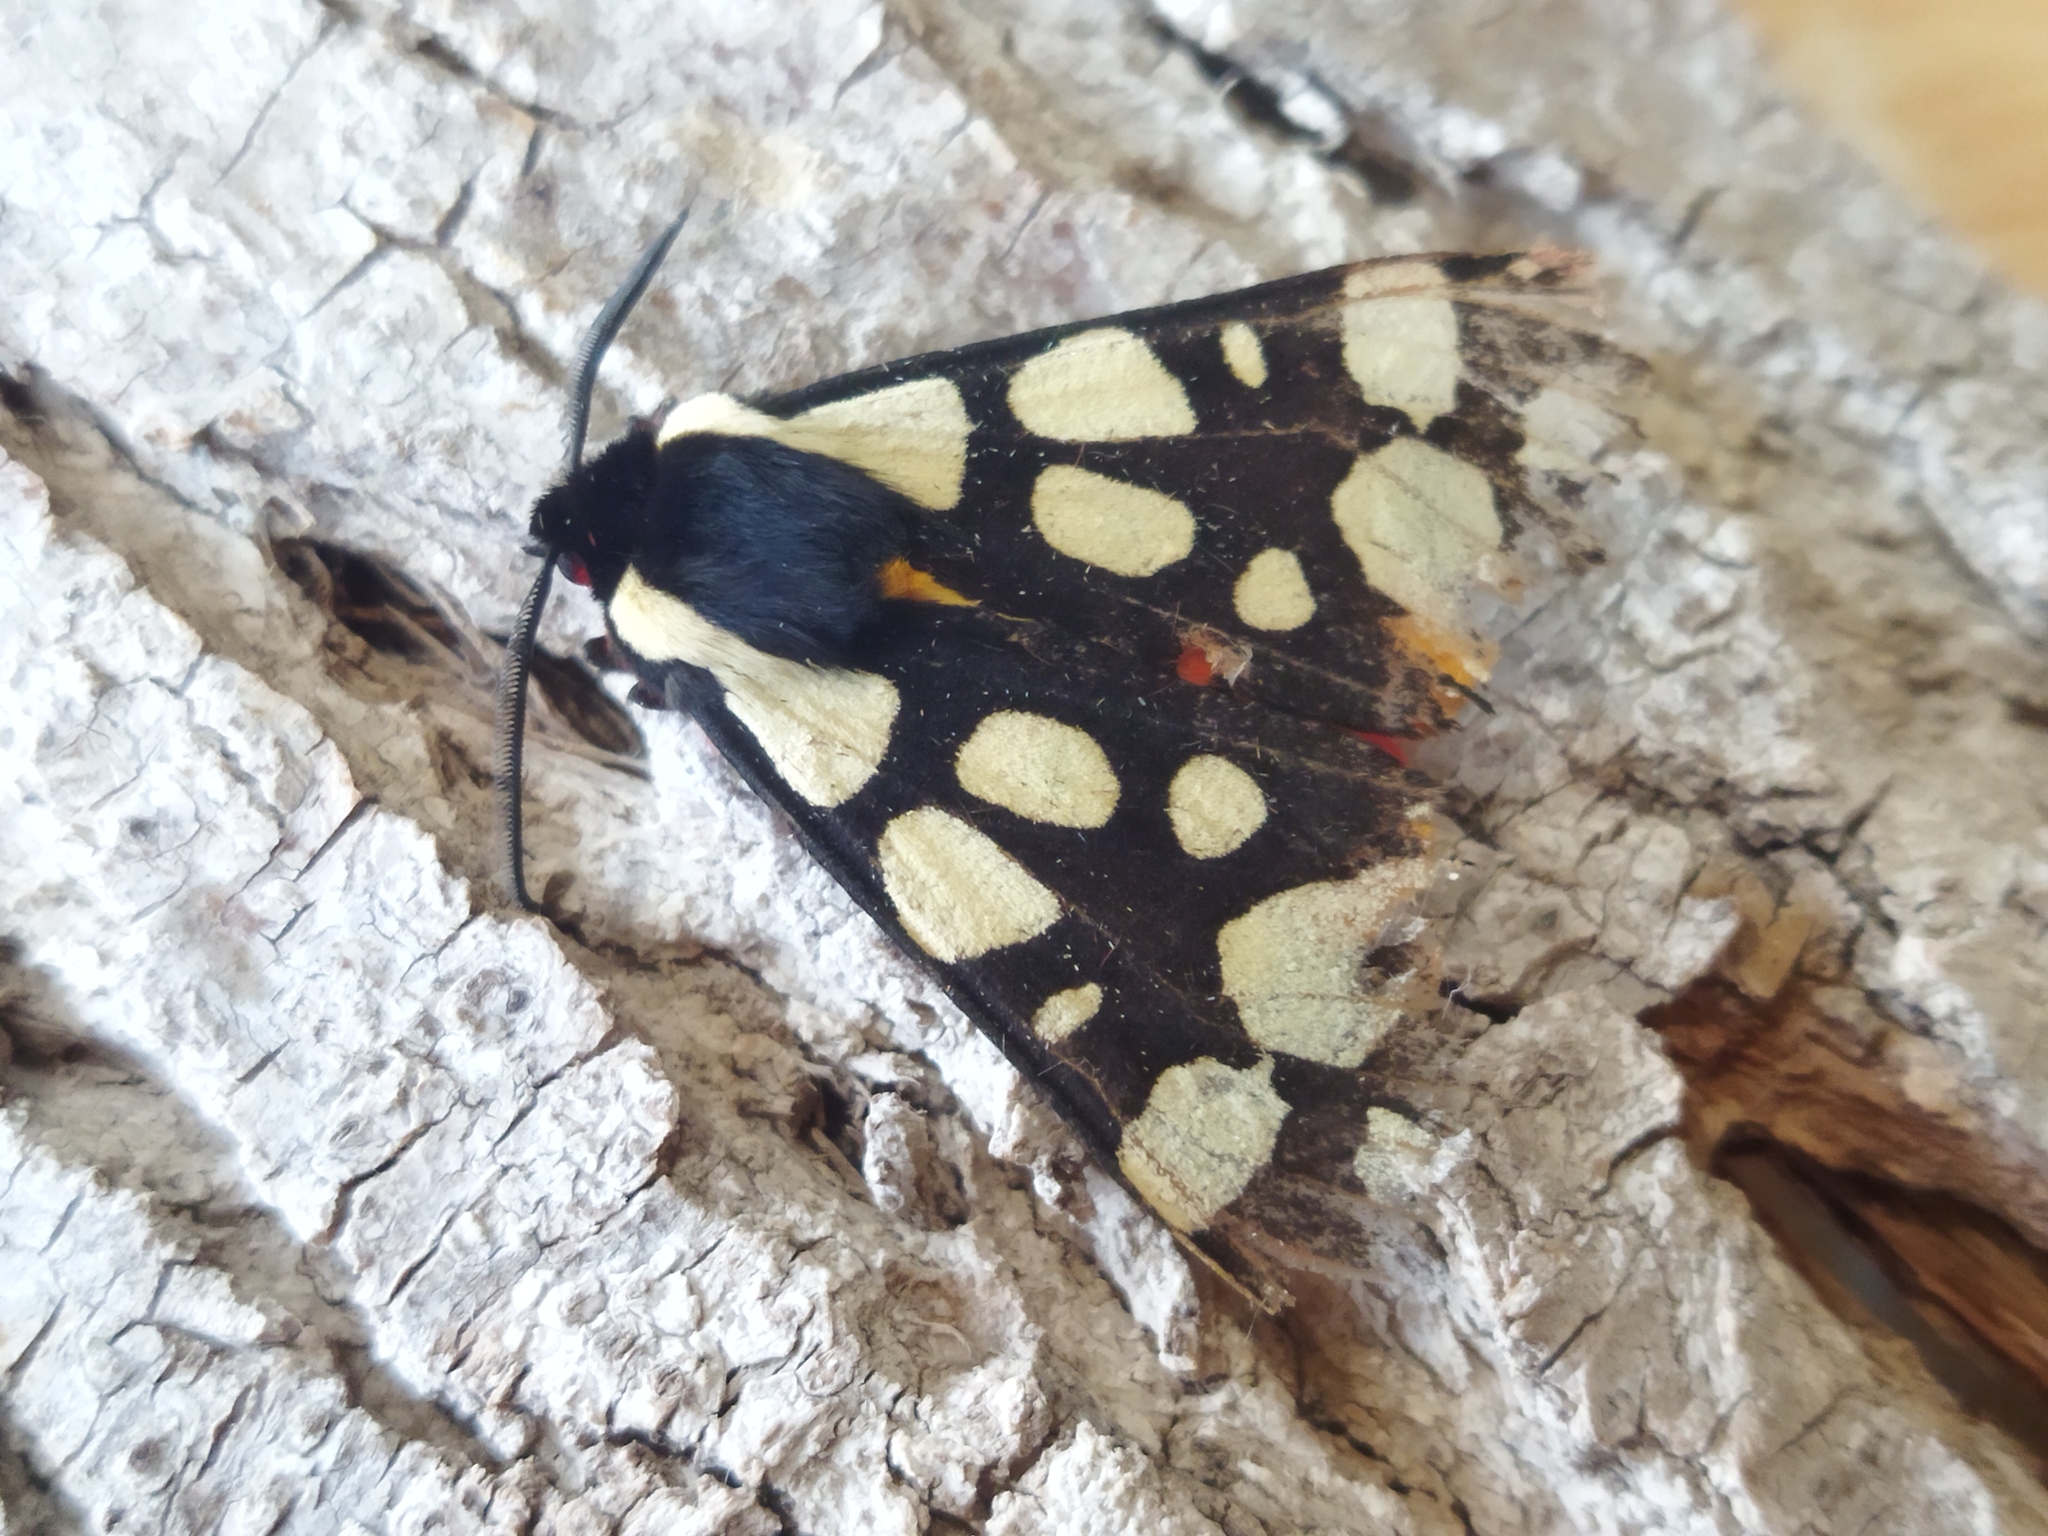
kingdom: Animalia
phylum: Arthropoda
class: Insecta
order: Lepidoptera
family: Erebidae
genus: Epicallia
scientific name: Epicallia villica
